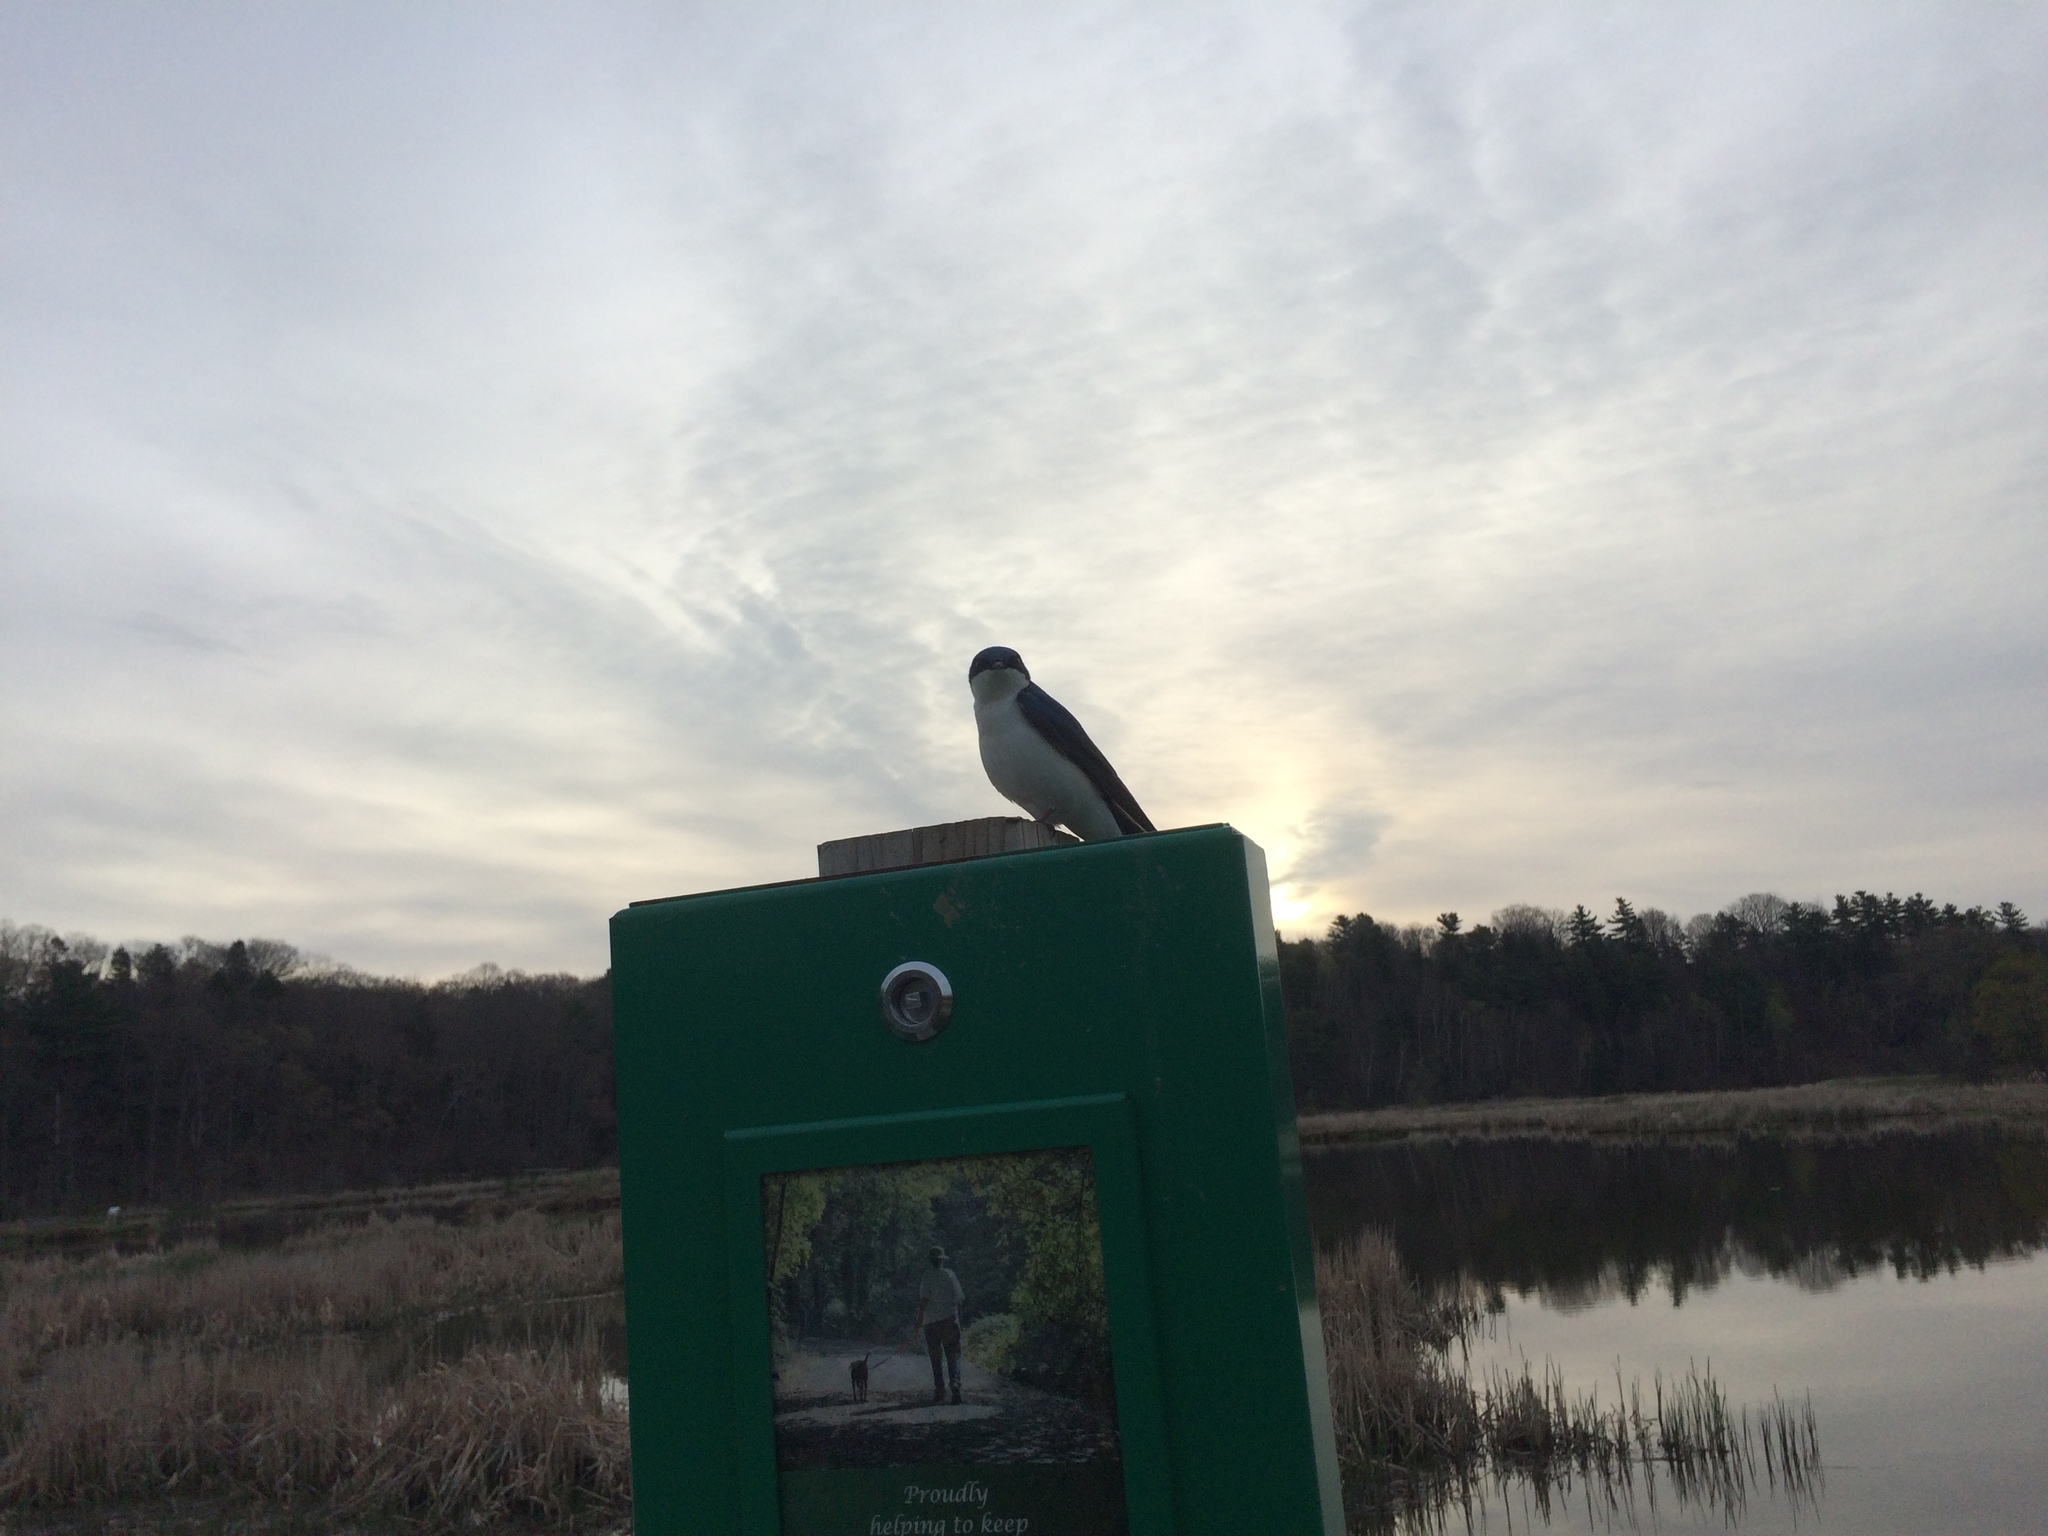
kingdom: Animalia
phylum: Chordata
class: Aves
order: Passeriformes
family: Hirundinidae
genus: Tachycineta
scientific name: Tachycineta bicolor
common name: Tree swallow
